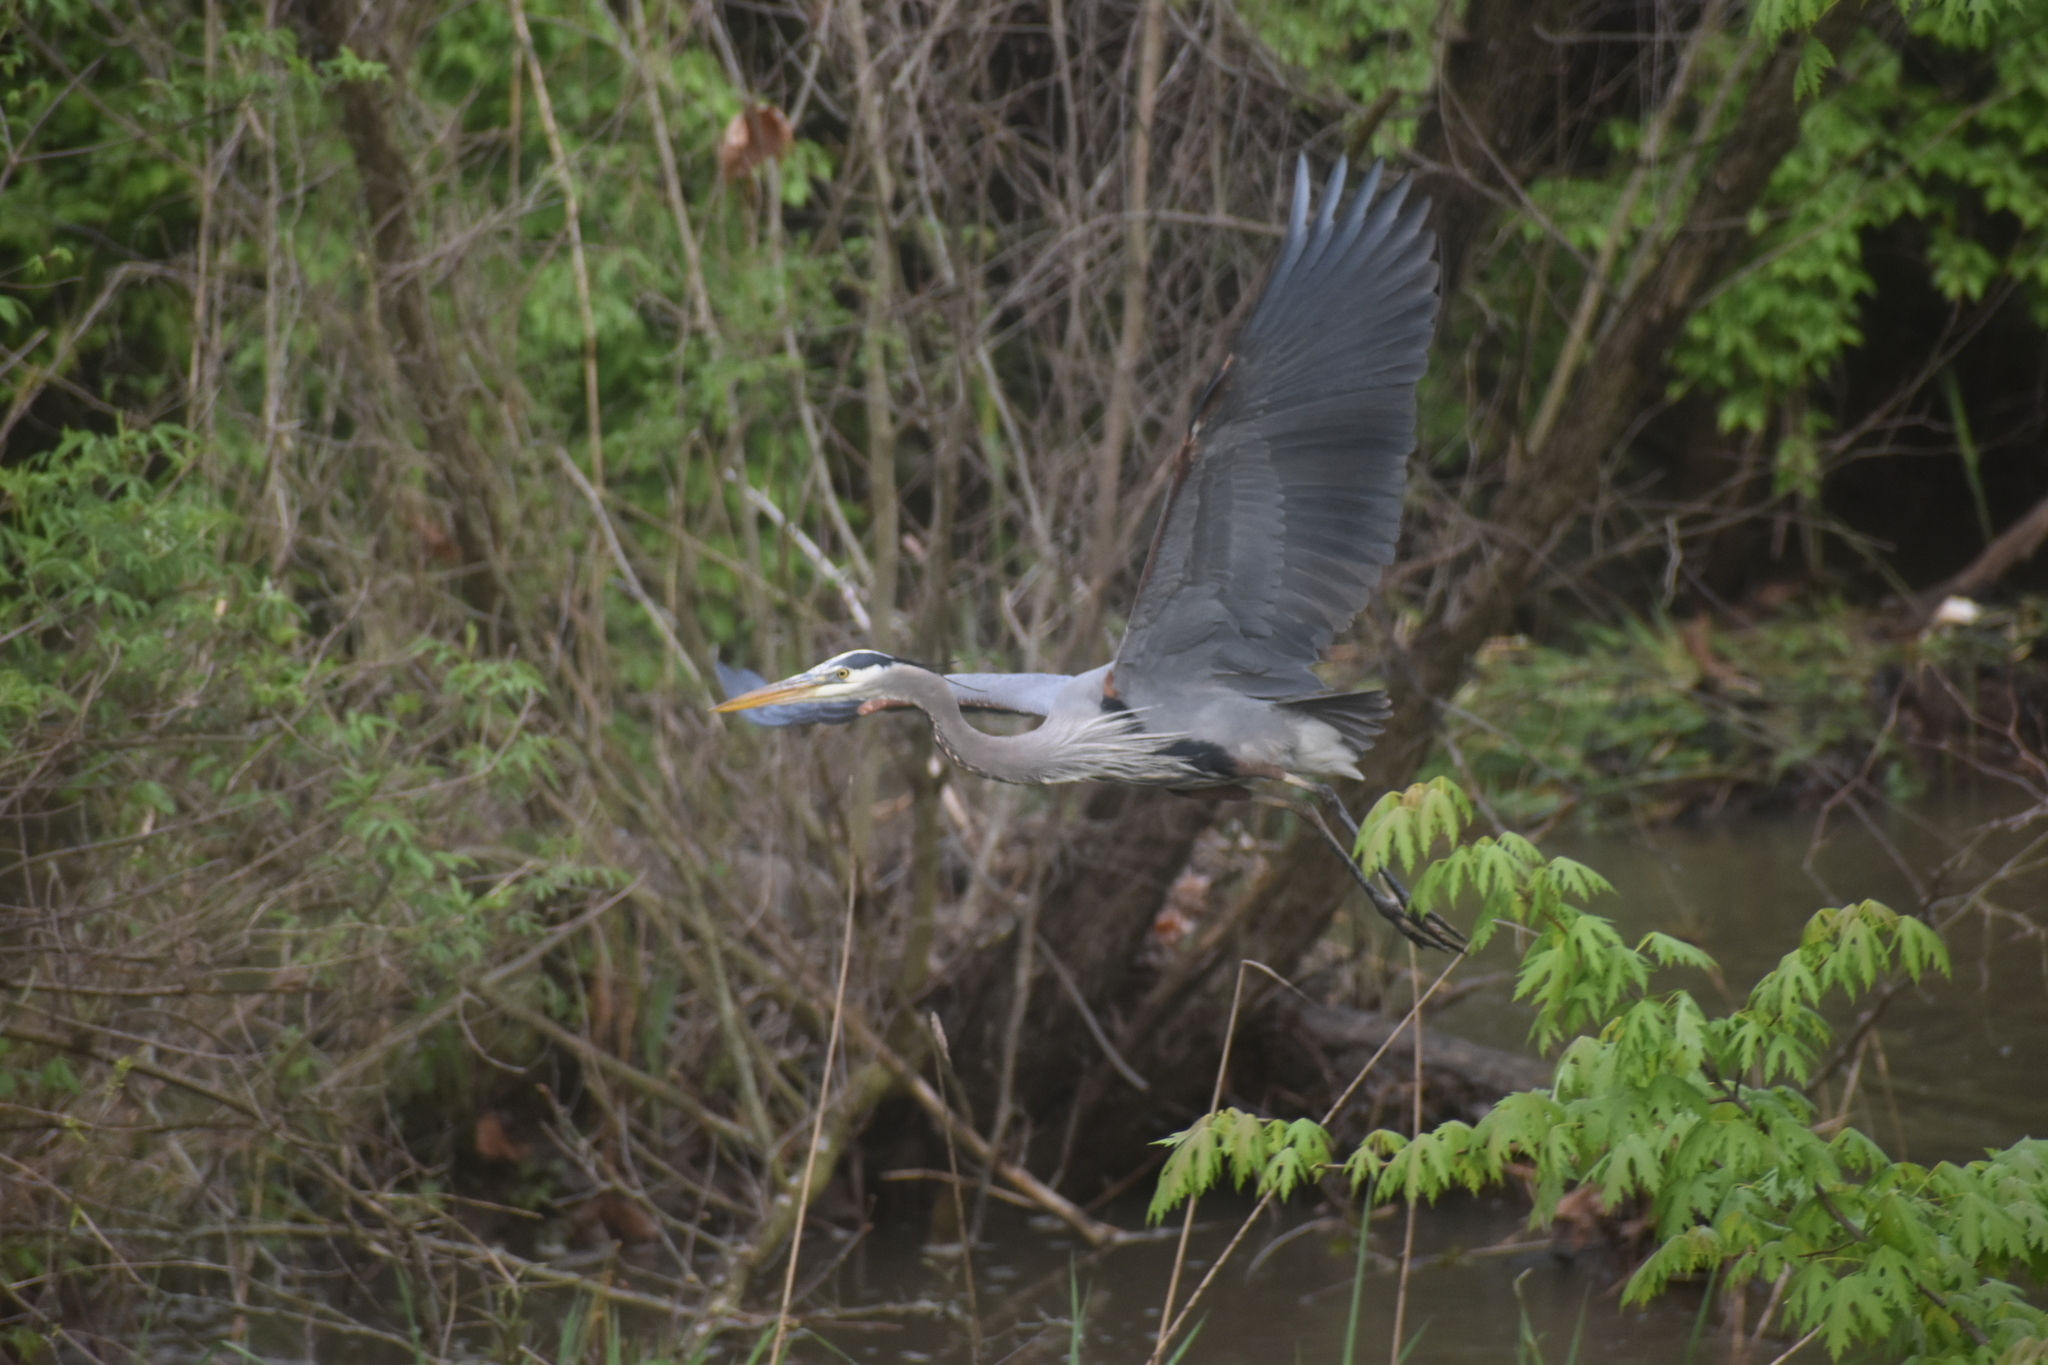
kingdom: Animalia
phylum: Chordata
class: Aves
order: Pelecaniformes
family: Ardeidae
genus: Ardea
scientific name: Ardea herodias
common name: Great blue heron
